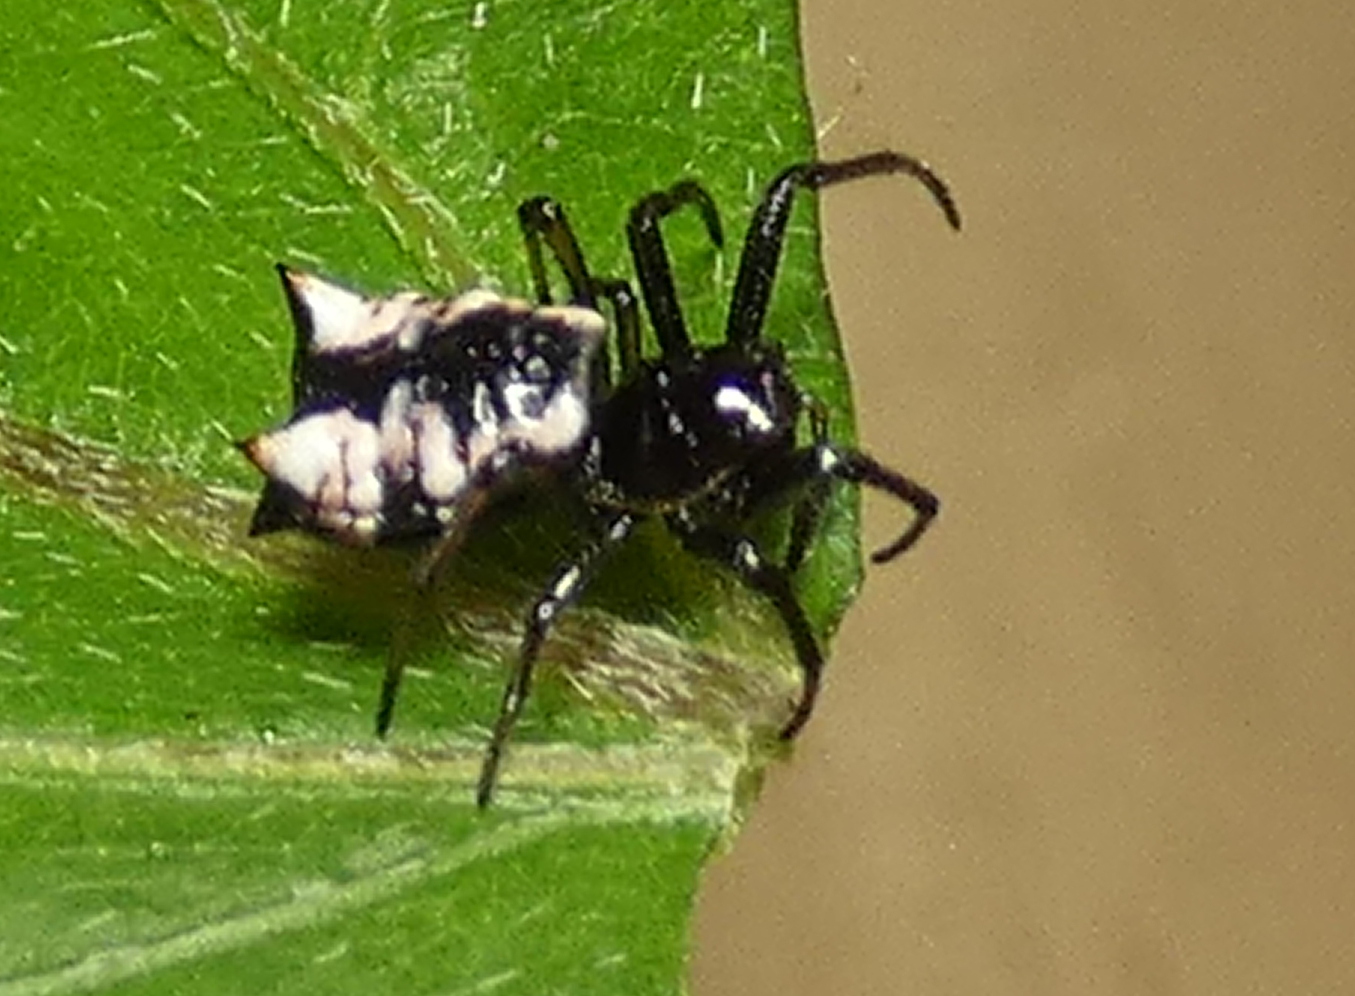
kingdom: Animalia
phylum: Arthropoda
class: Arachnida
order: Araneae
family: Araneidae
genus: Micrathena
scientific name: Micrathena patruelis
